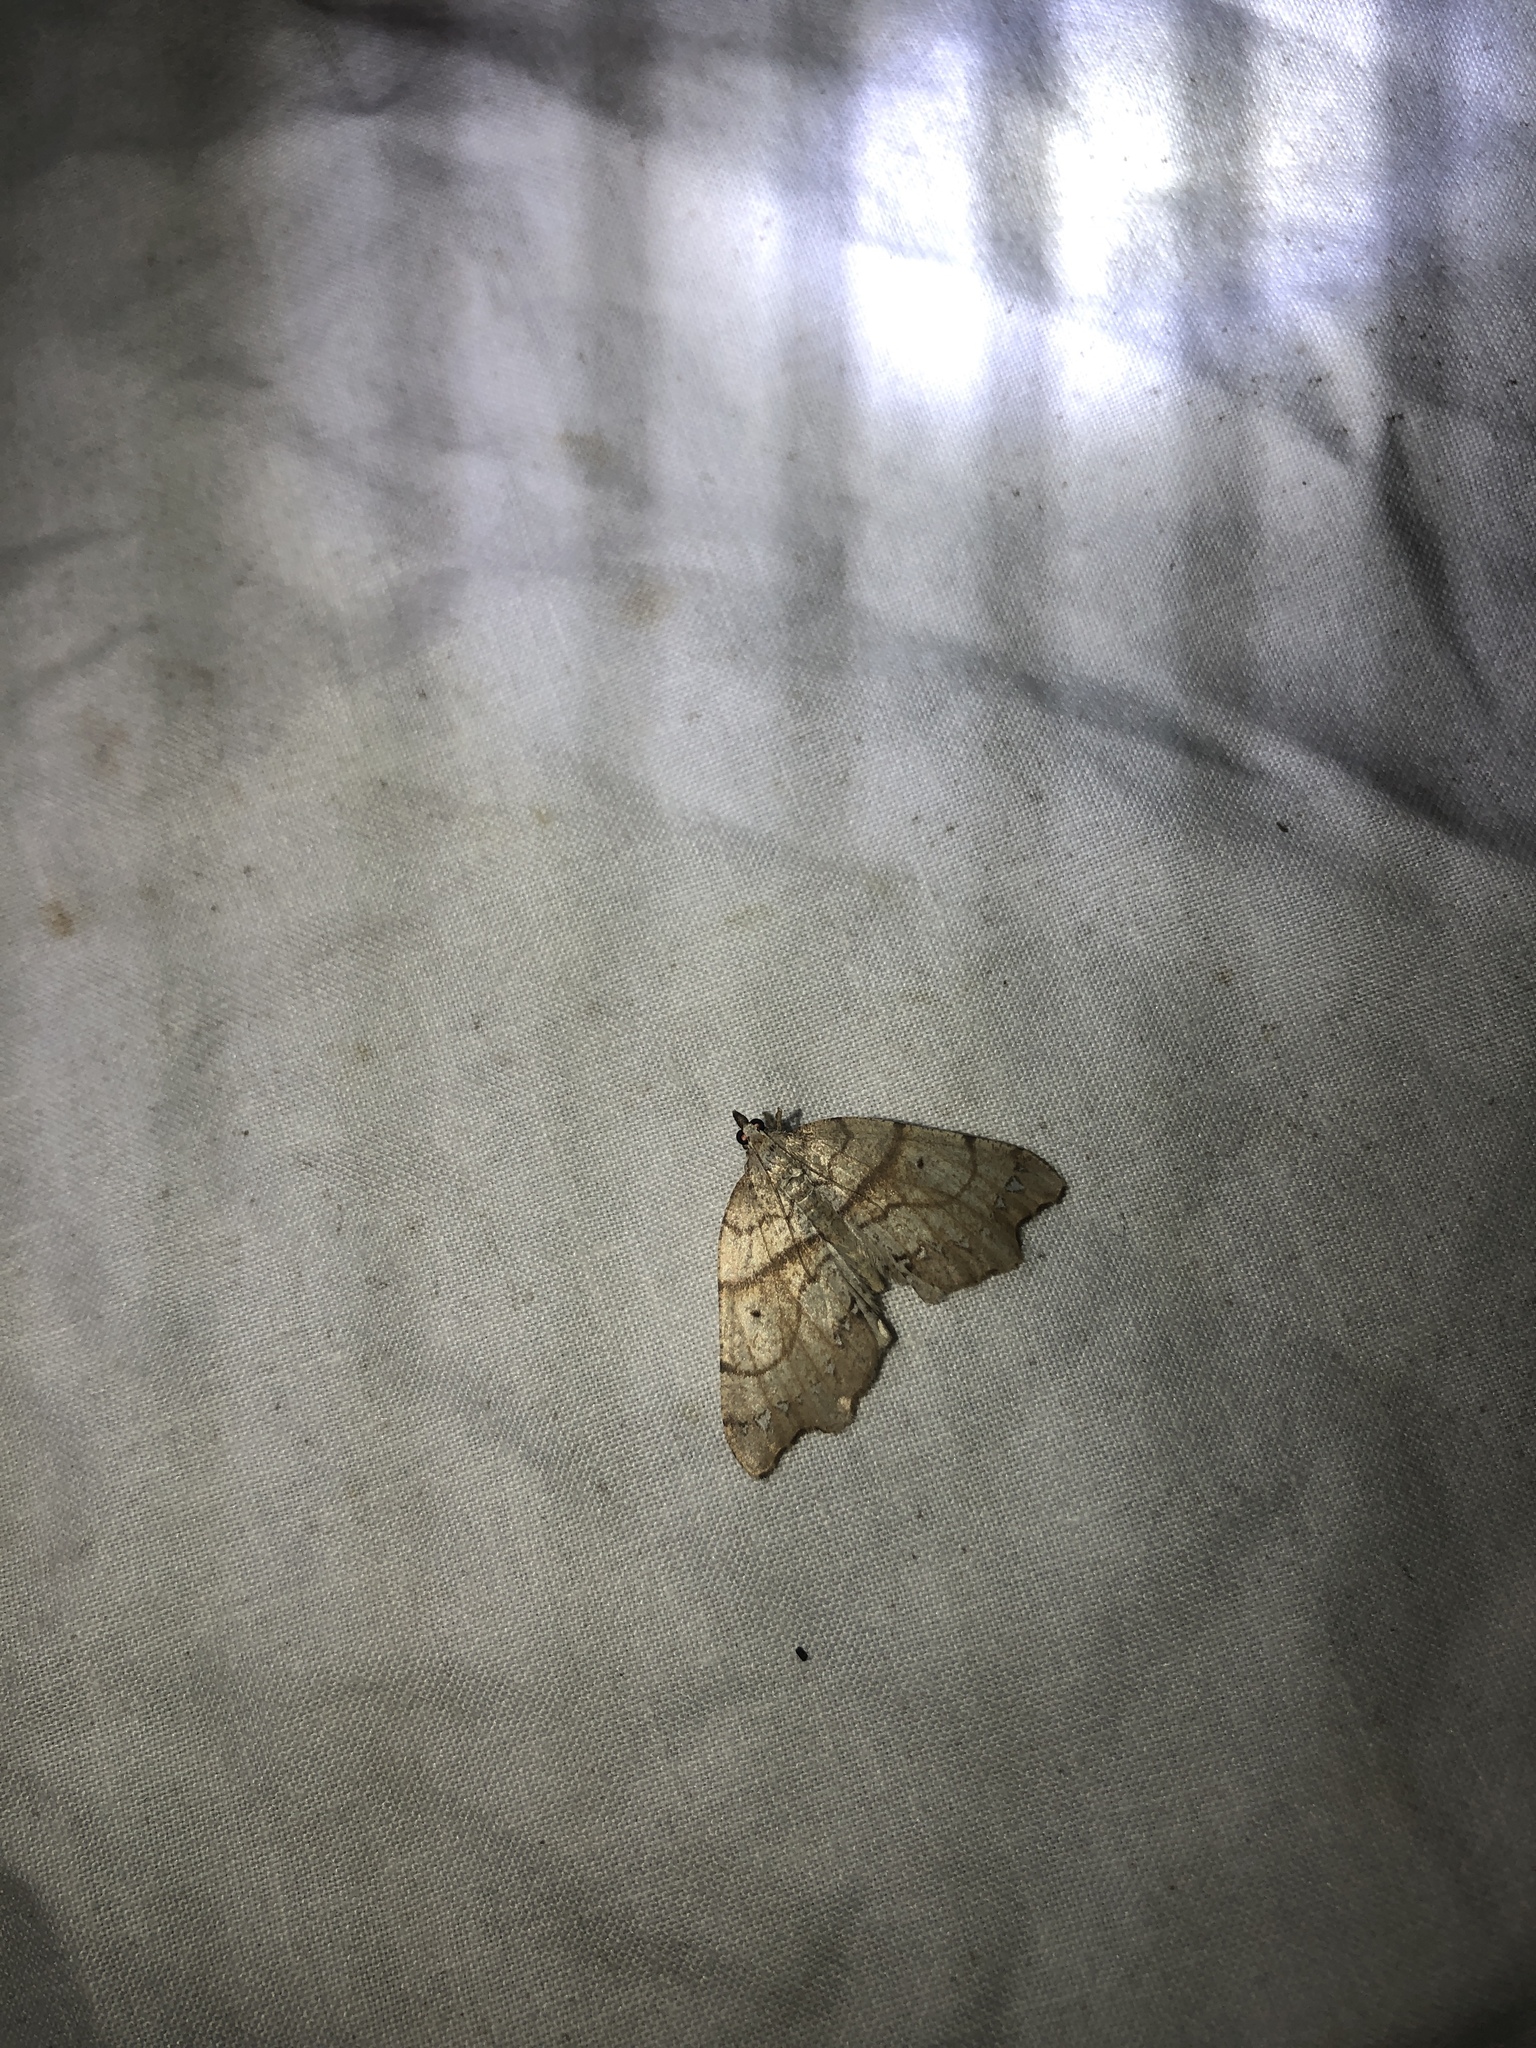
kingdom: Animalia
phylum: Arthropoda
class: Insecta
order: Lepidoptera
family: Geometridae
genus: Chalastra
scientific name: Chalastra pellurgata
